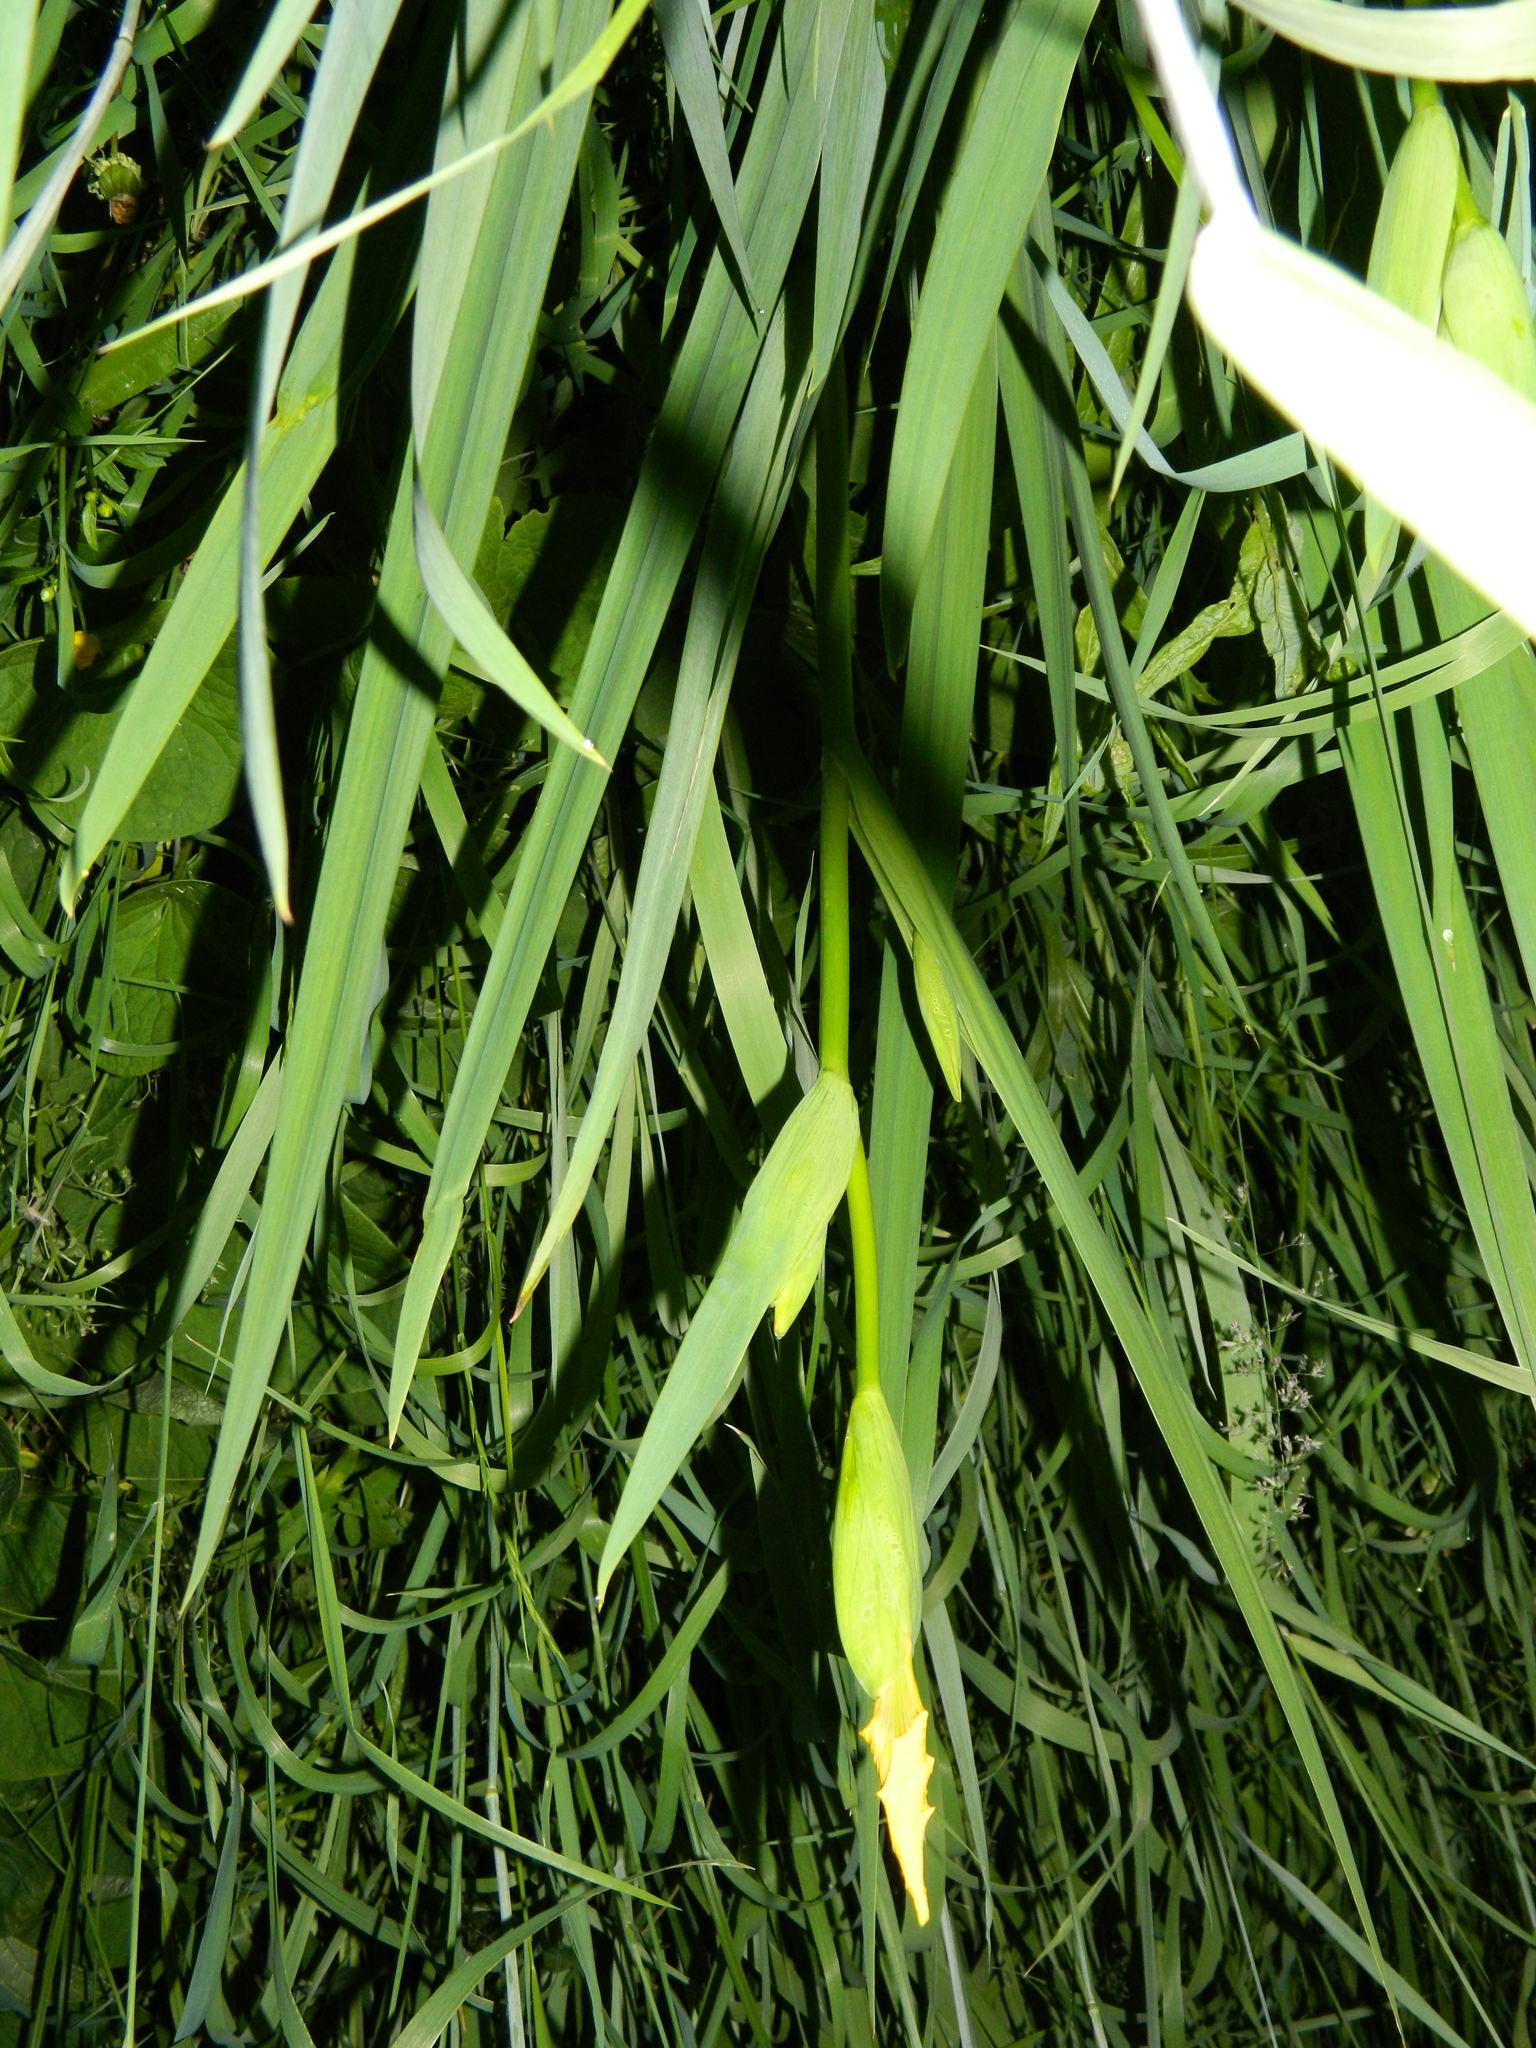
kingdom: Plantae
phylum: Tracheophyta
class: Liliopsida
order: Asparagales
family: Iridaceae
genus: Iris
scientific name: Iris pseudacorus
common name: Yellow flag
